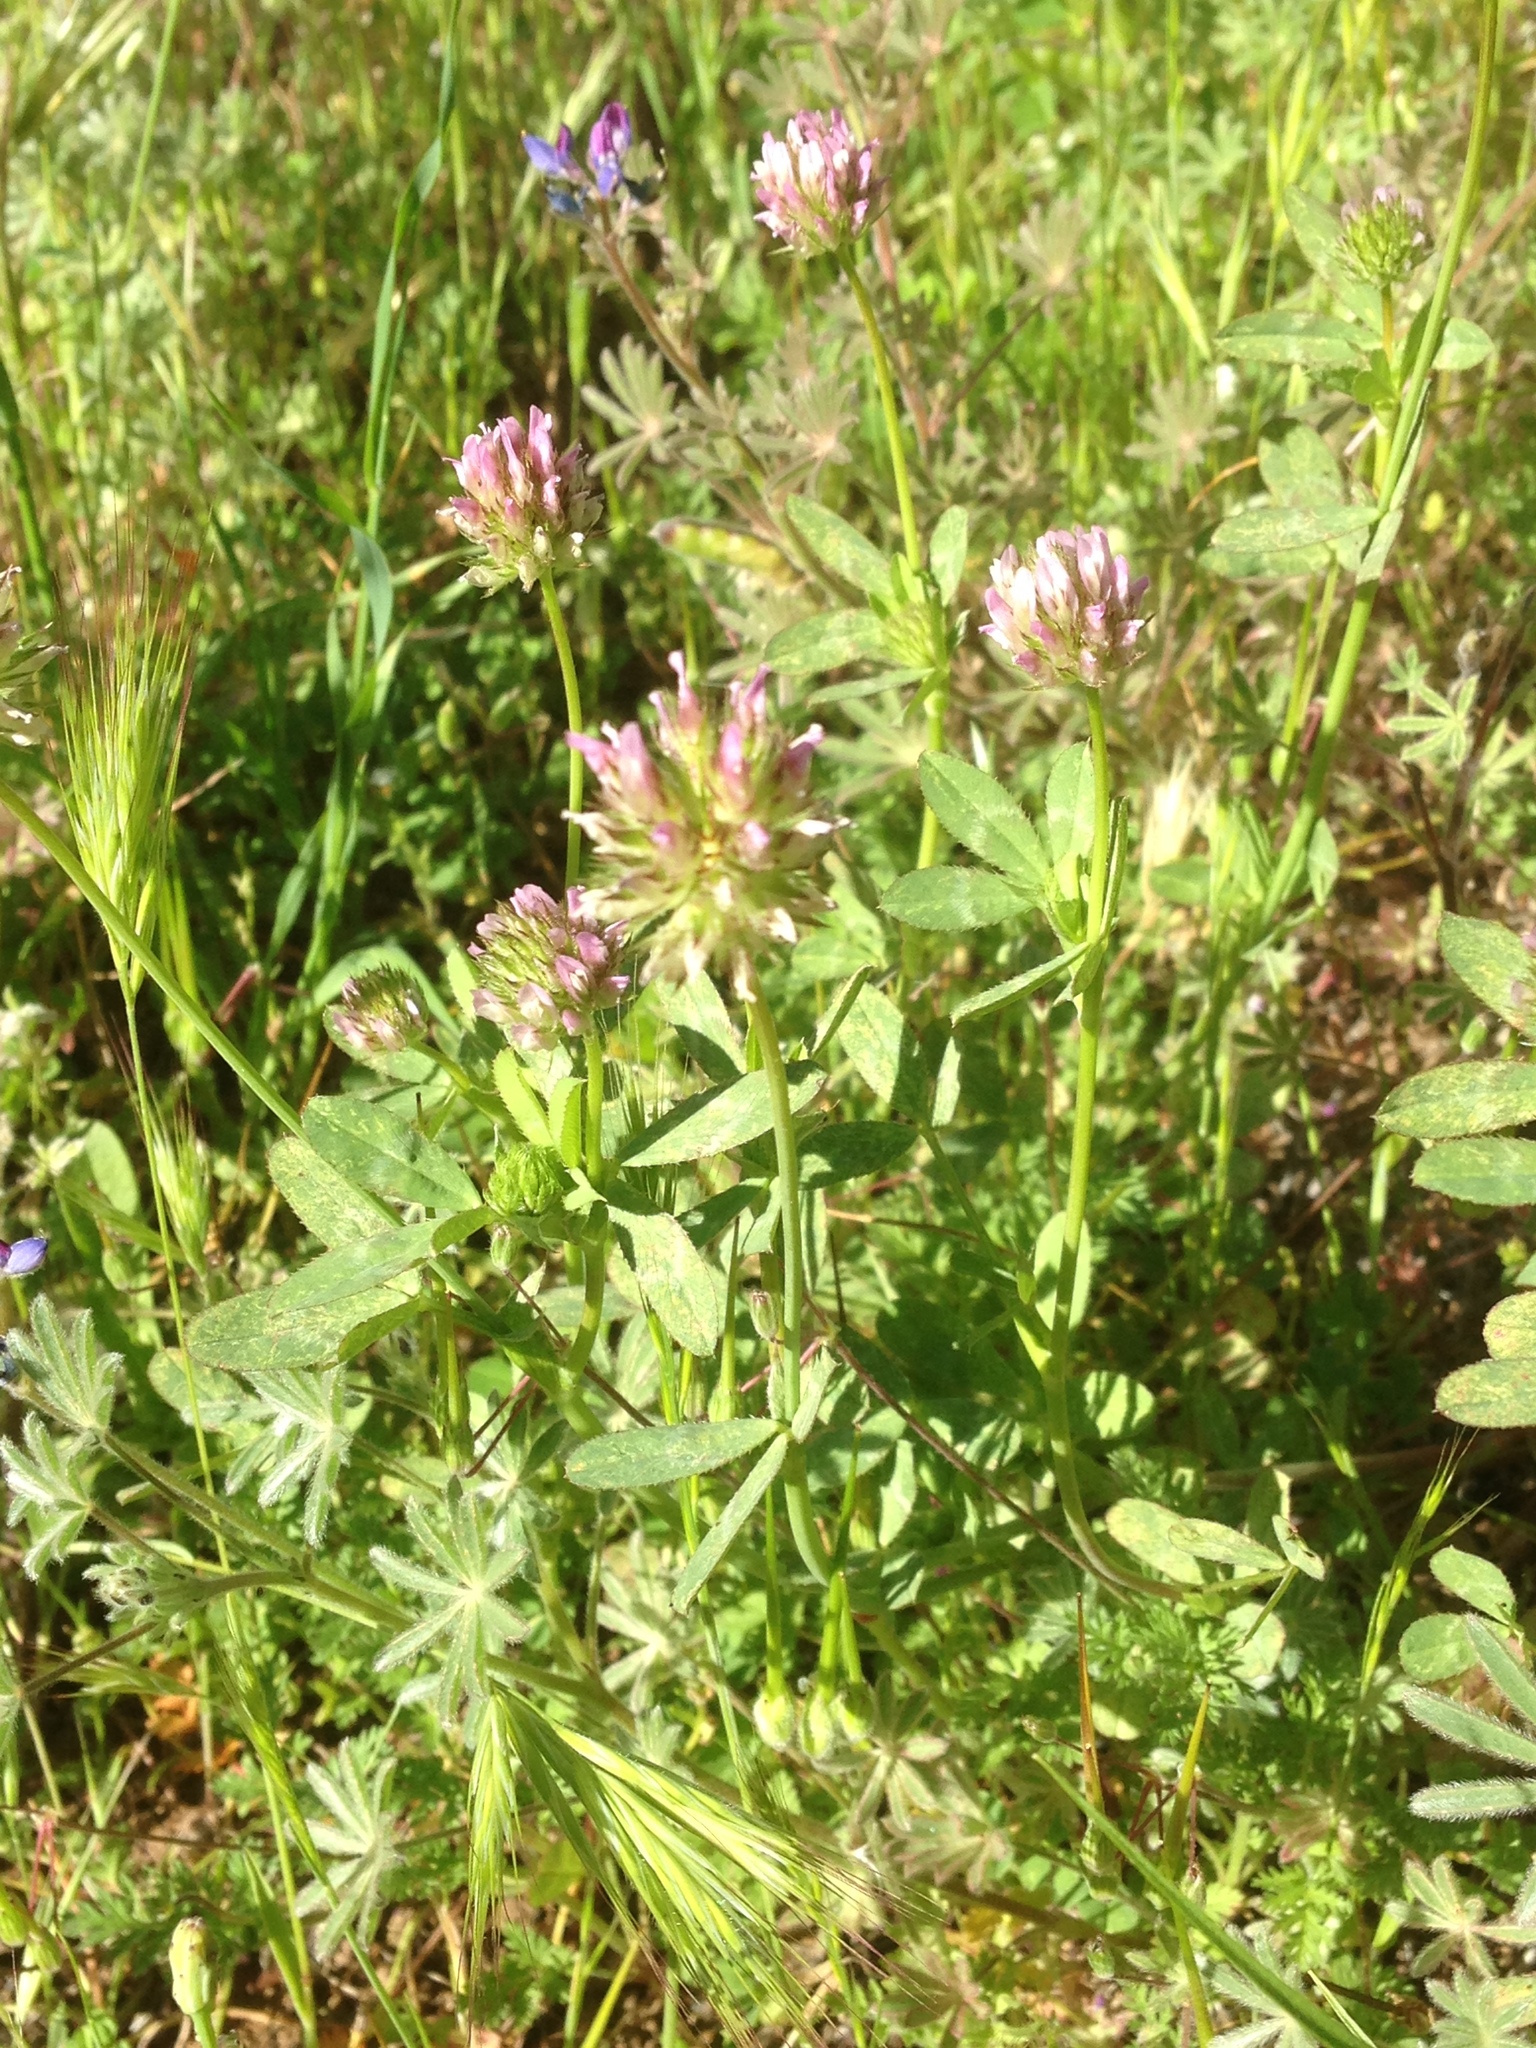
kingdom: Plantae
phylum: Tracheophyta
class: Magnoliopsida
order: Fabales
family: Fabaceae
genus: Trifolium
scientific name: Trifolium ciliolatum
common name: Foothill clover
